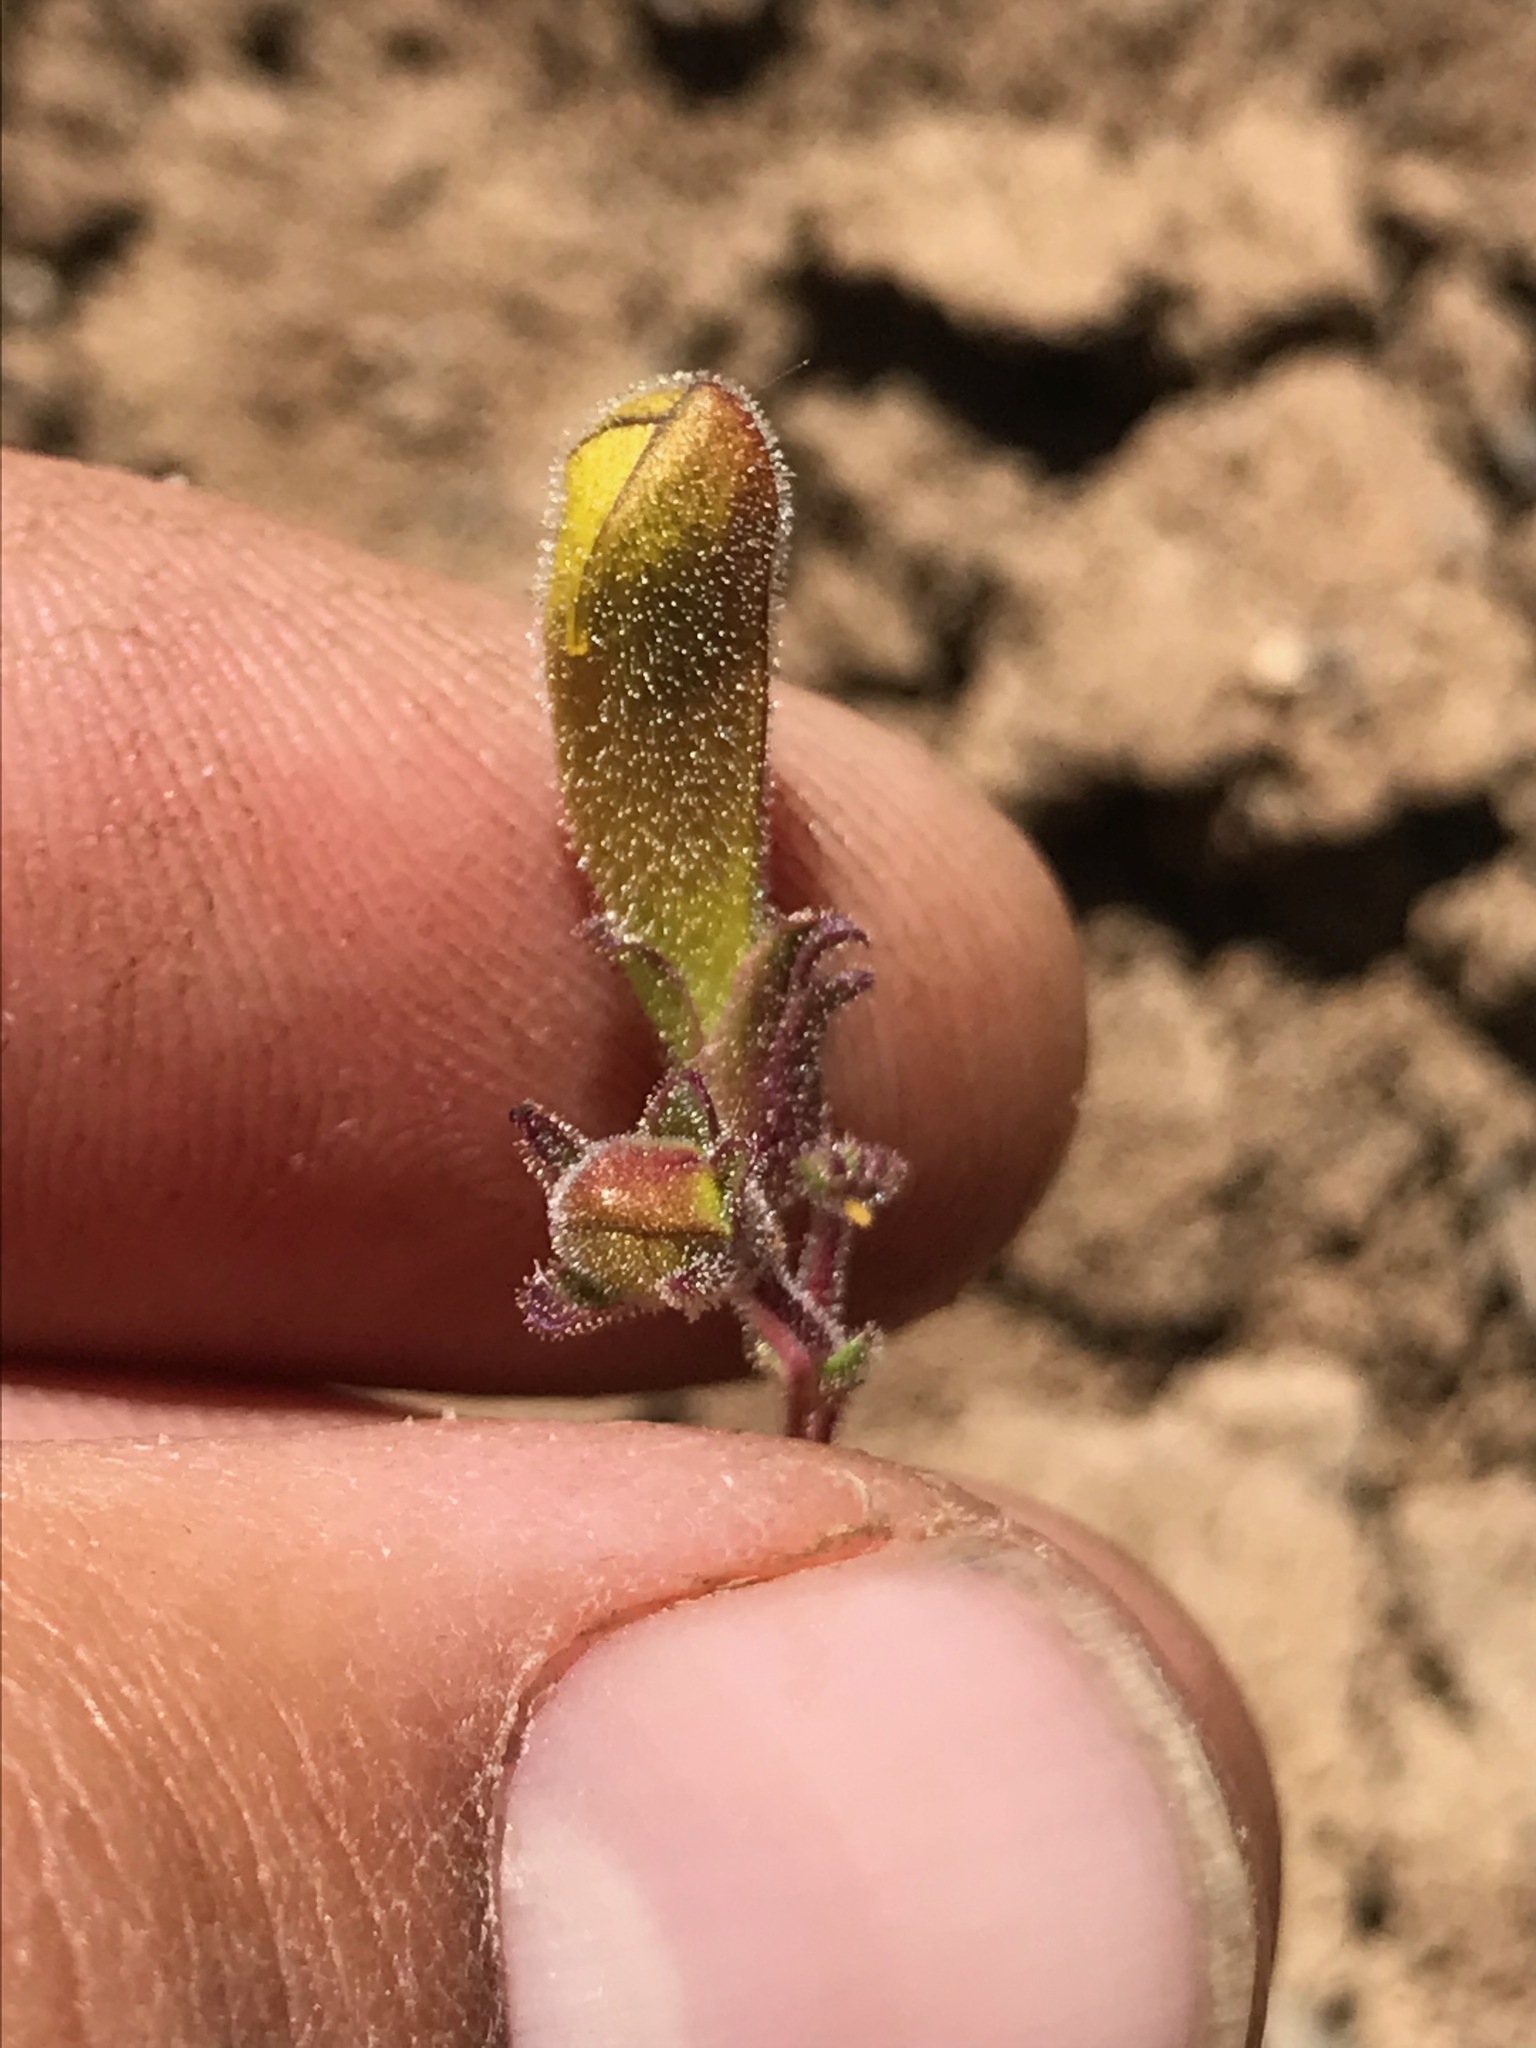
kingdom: Plantae
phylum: Tracheophyta
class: Magnoliopsida
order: Lamiales
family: Plantaginaceae
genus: Penstemon
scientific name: Penstemon laetus
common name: Gay penstemon
